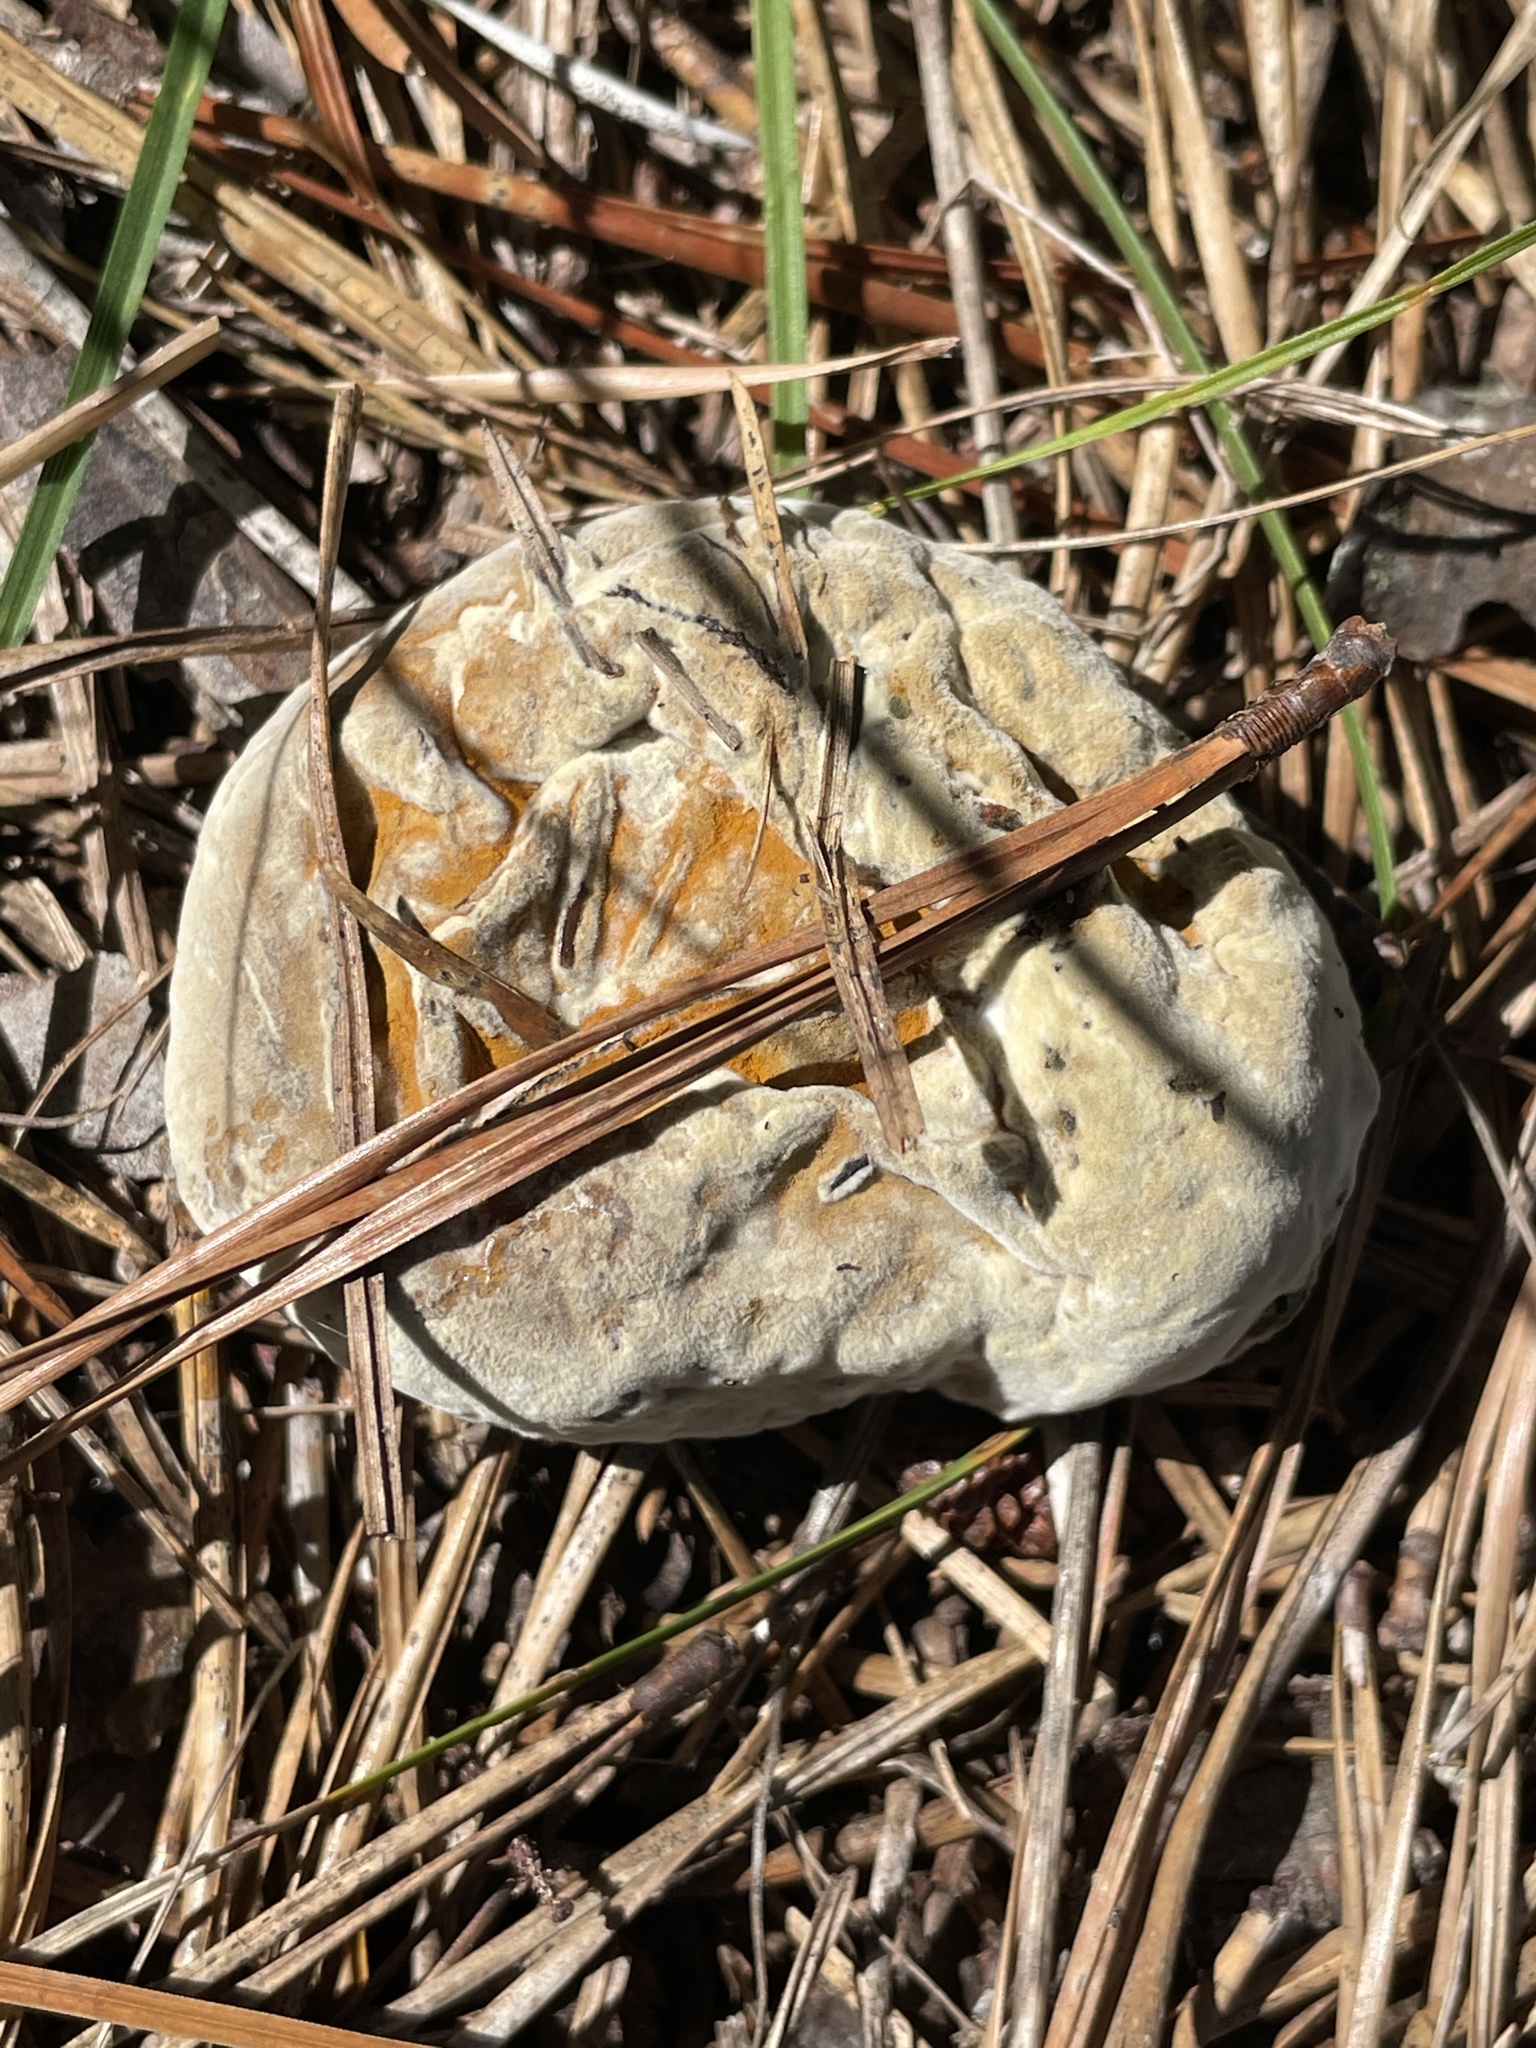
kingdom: Fungi
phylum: Ascomycota
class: Sordariomycetes
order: Hypocreales
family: Hypocreaceae
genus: Hypomyces
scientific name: Hypomyces chrysospermus
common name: Bolete mould
